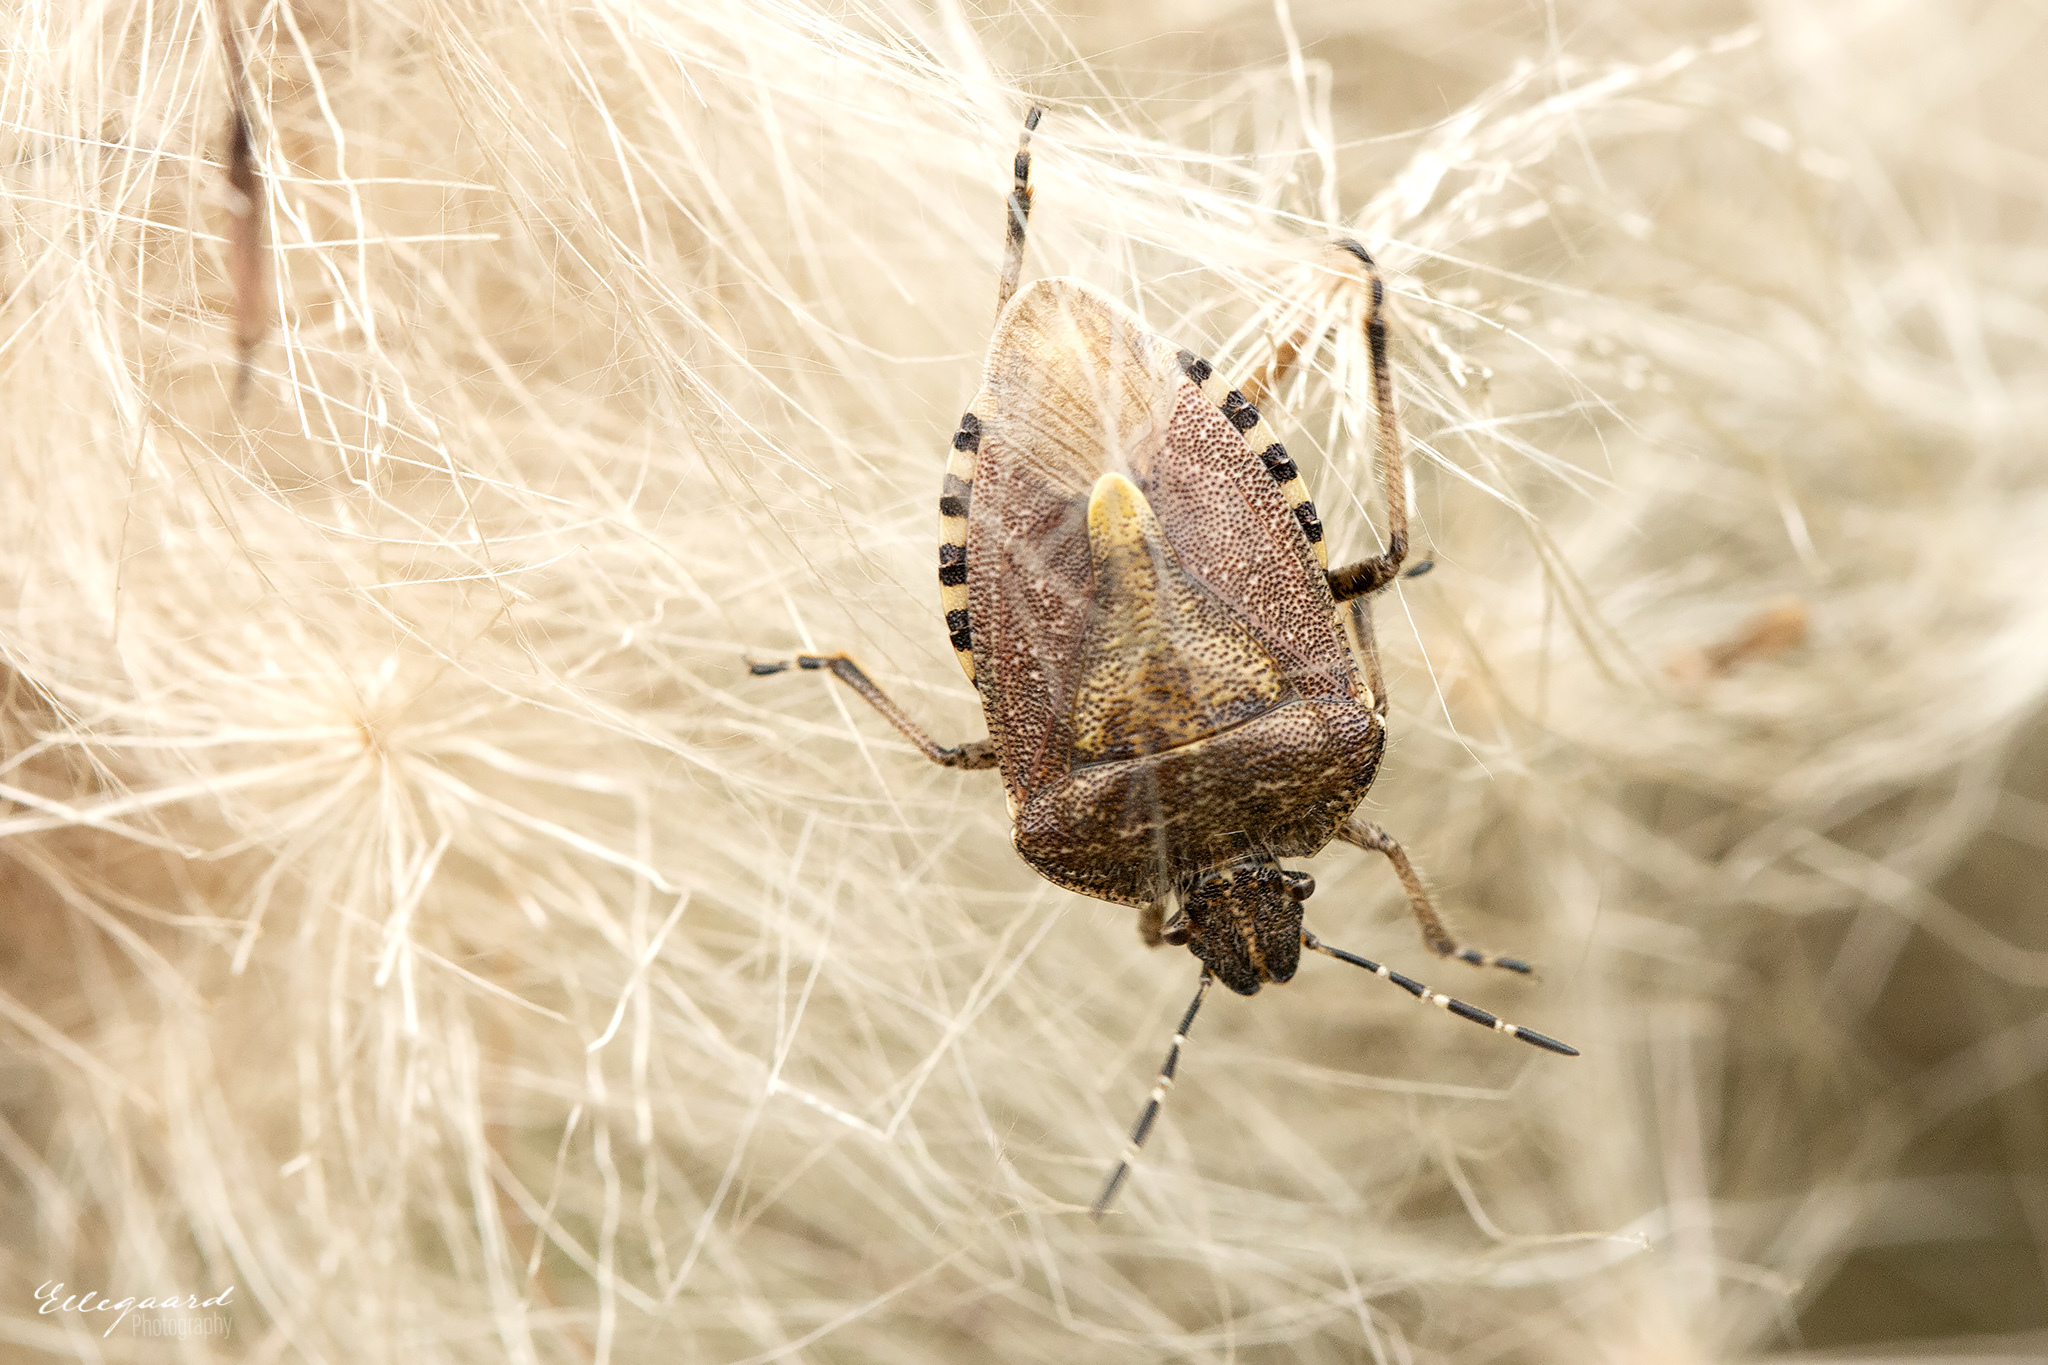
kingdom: Animalia
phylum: Arthropoda
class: Insecta
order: Hemiptera
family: Pentatomidae
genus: Dolycoris
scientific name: Dolycoris baccarum
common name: Sloe bug
